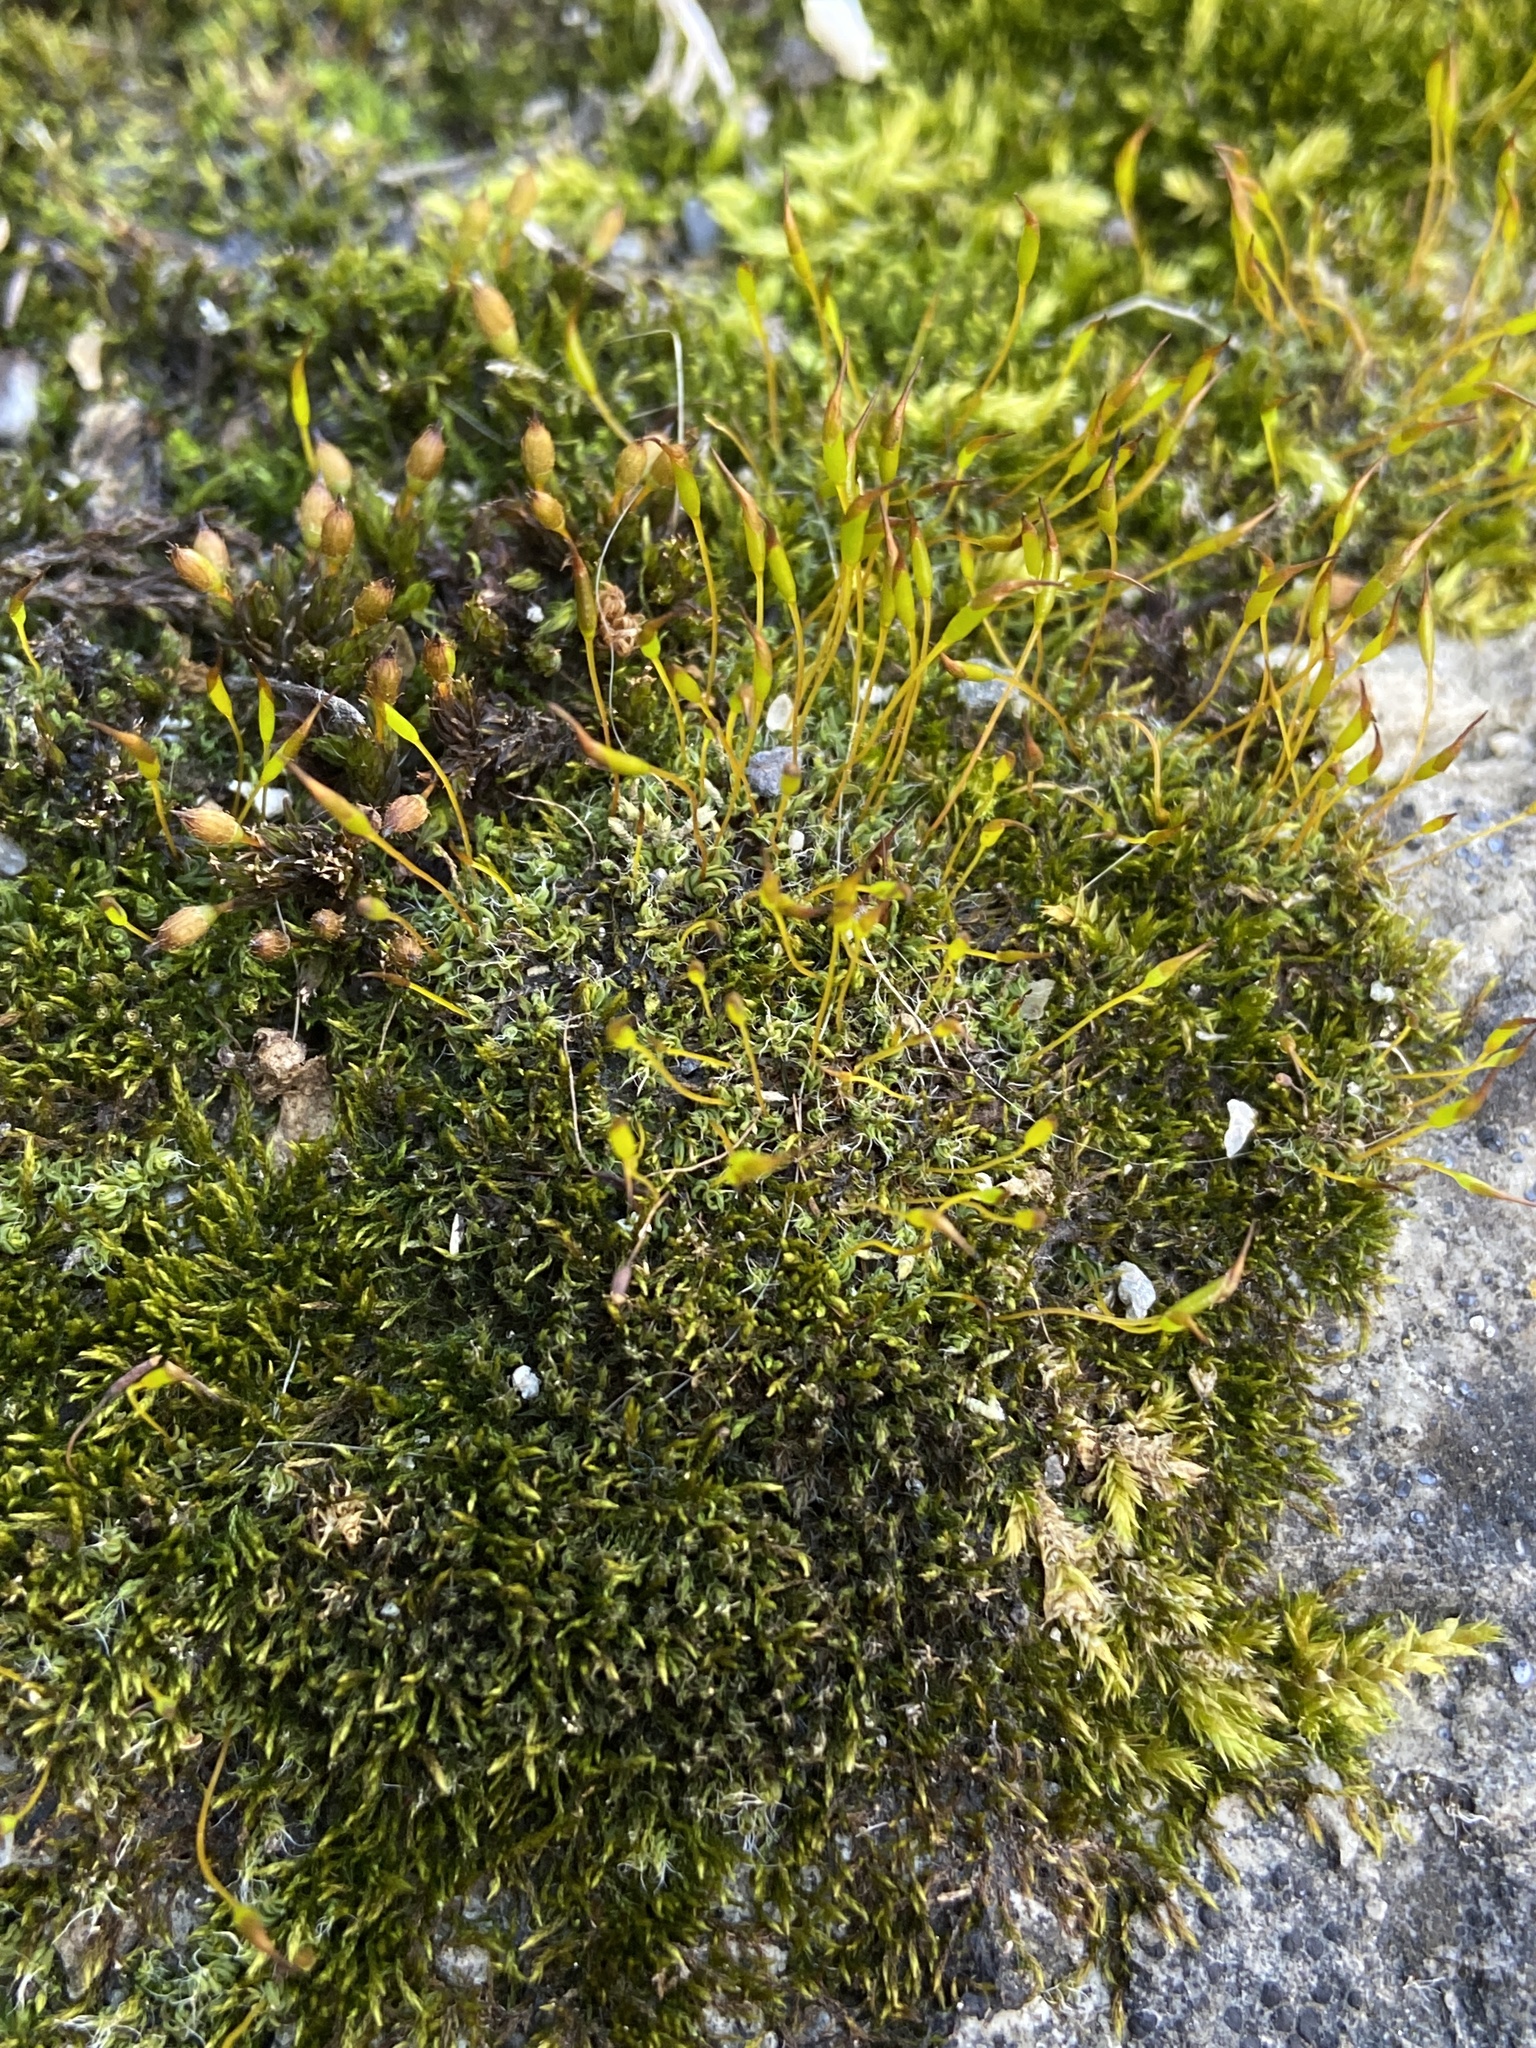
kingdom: Plantae
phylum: Bryophyta
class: Bryopsida
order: Pottiales
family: Pottiaceae
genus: Tortula
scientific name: Tortula muralis
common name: Wall screw-moss
